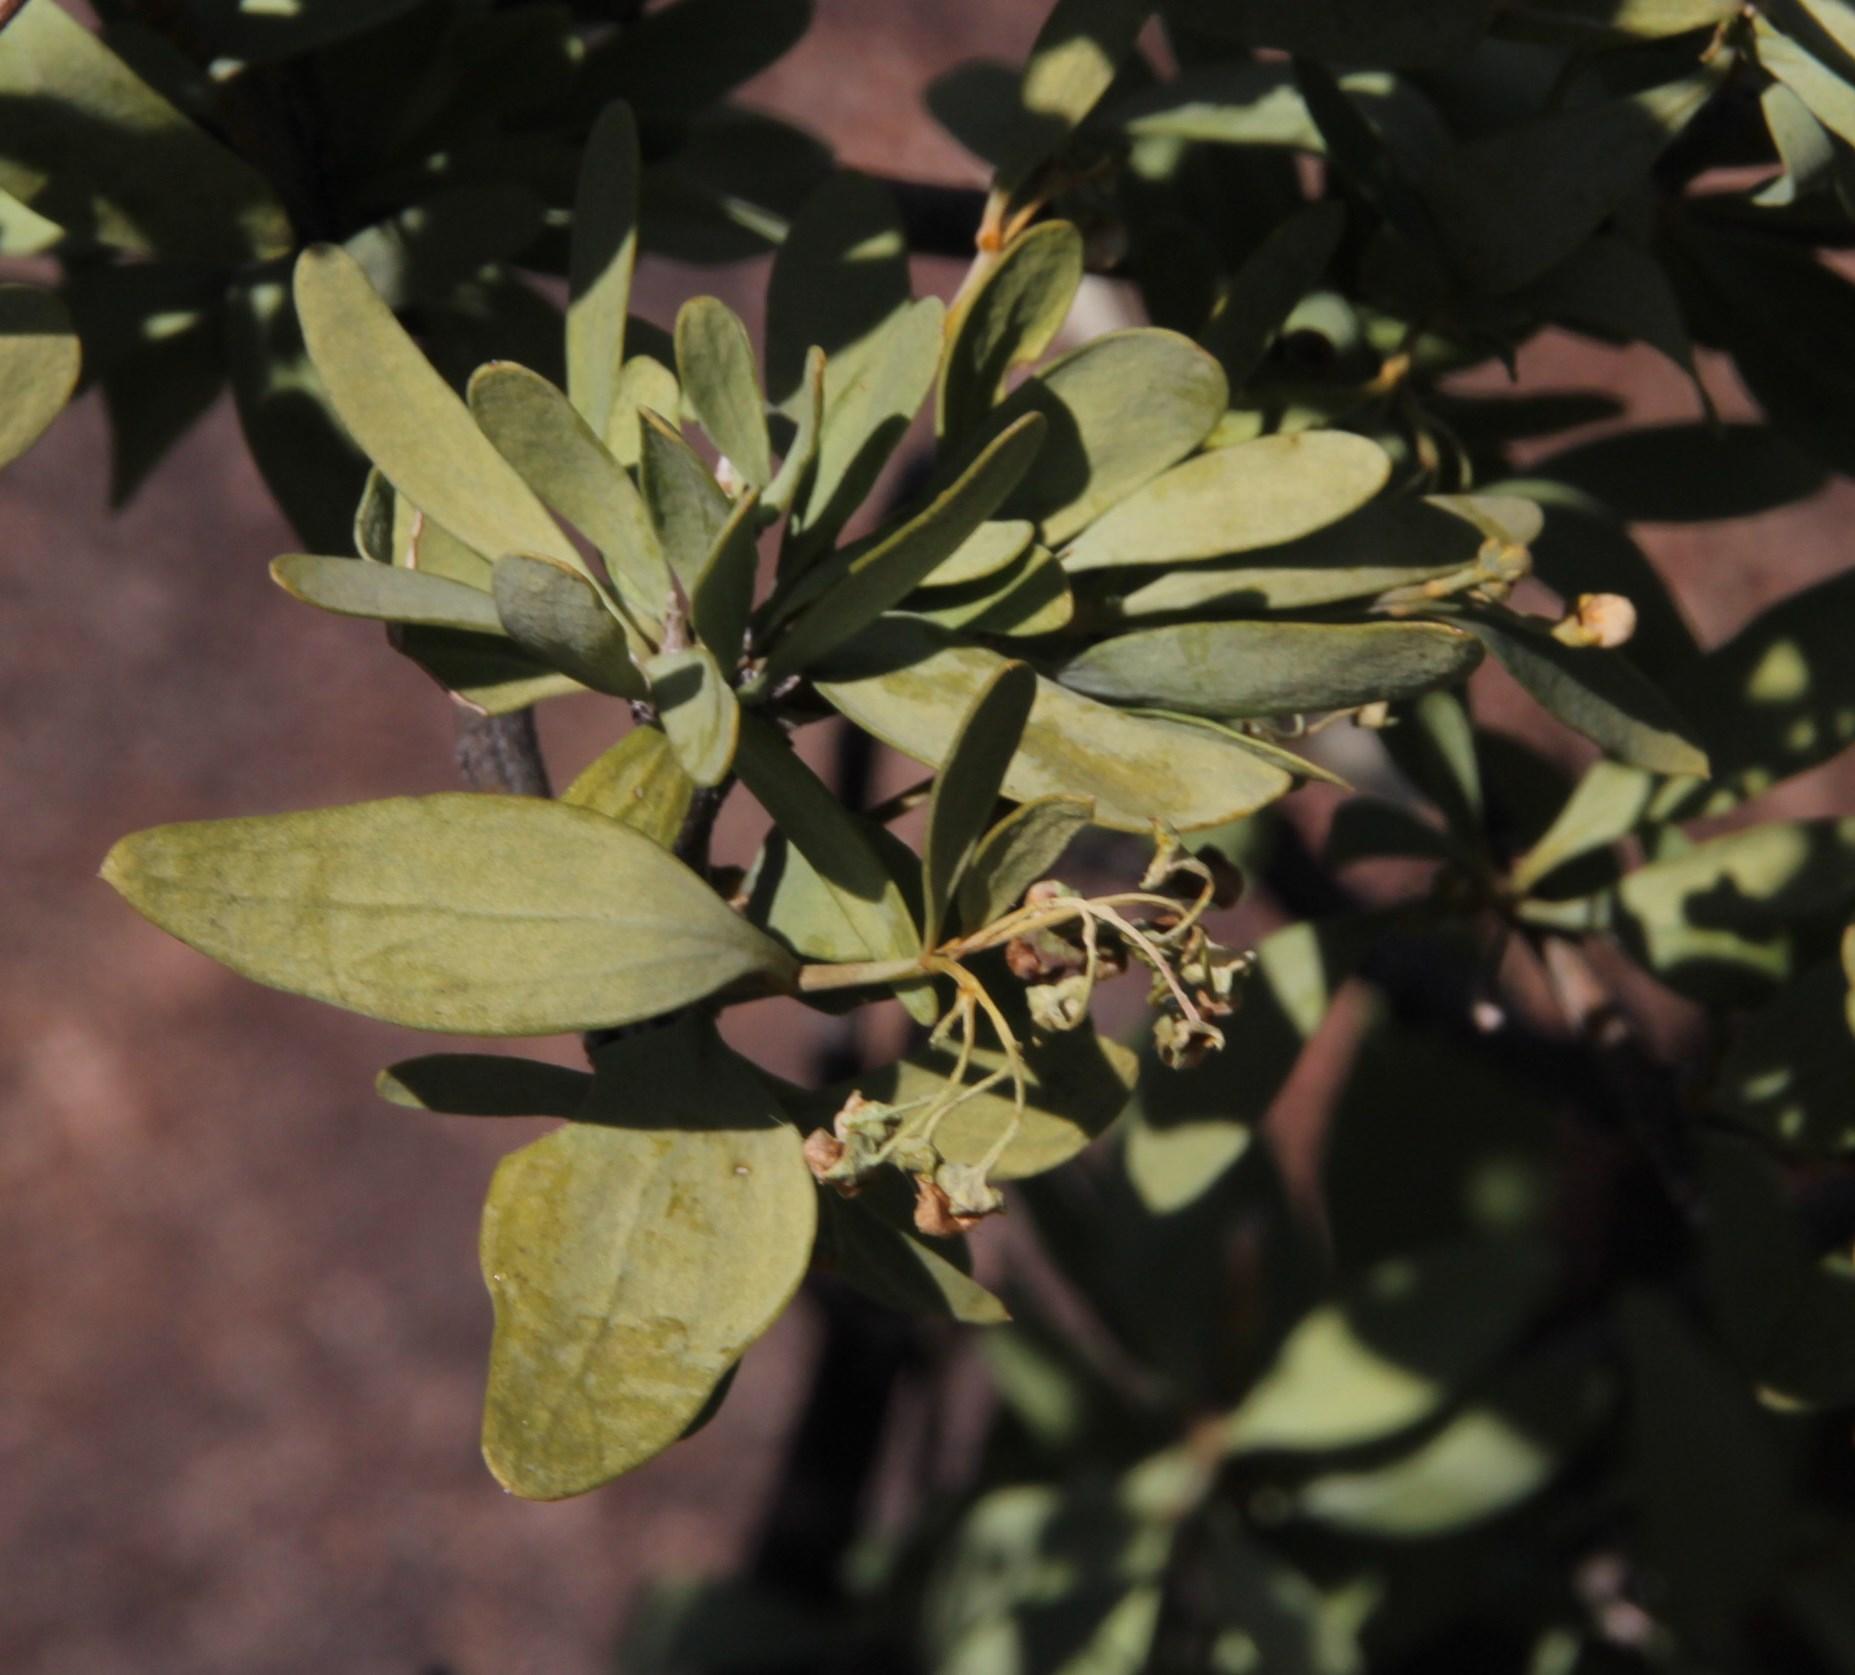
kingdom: Plantae
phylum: Tracheophyta
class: Magnoliopsida
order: Solanales
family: Montiniaceae
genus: Montinia
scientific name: Montinia caryophyllacea
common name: Wild clove-bush
